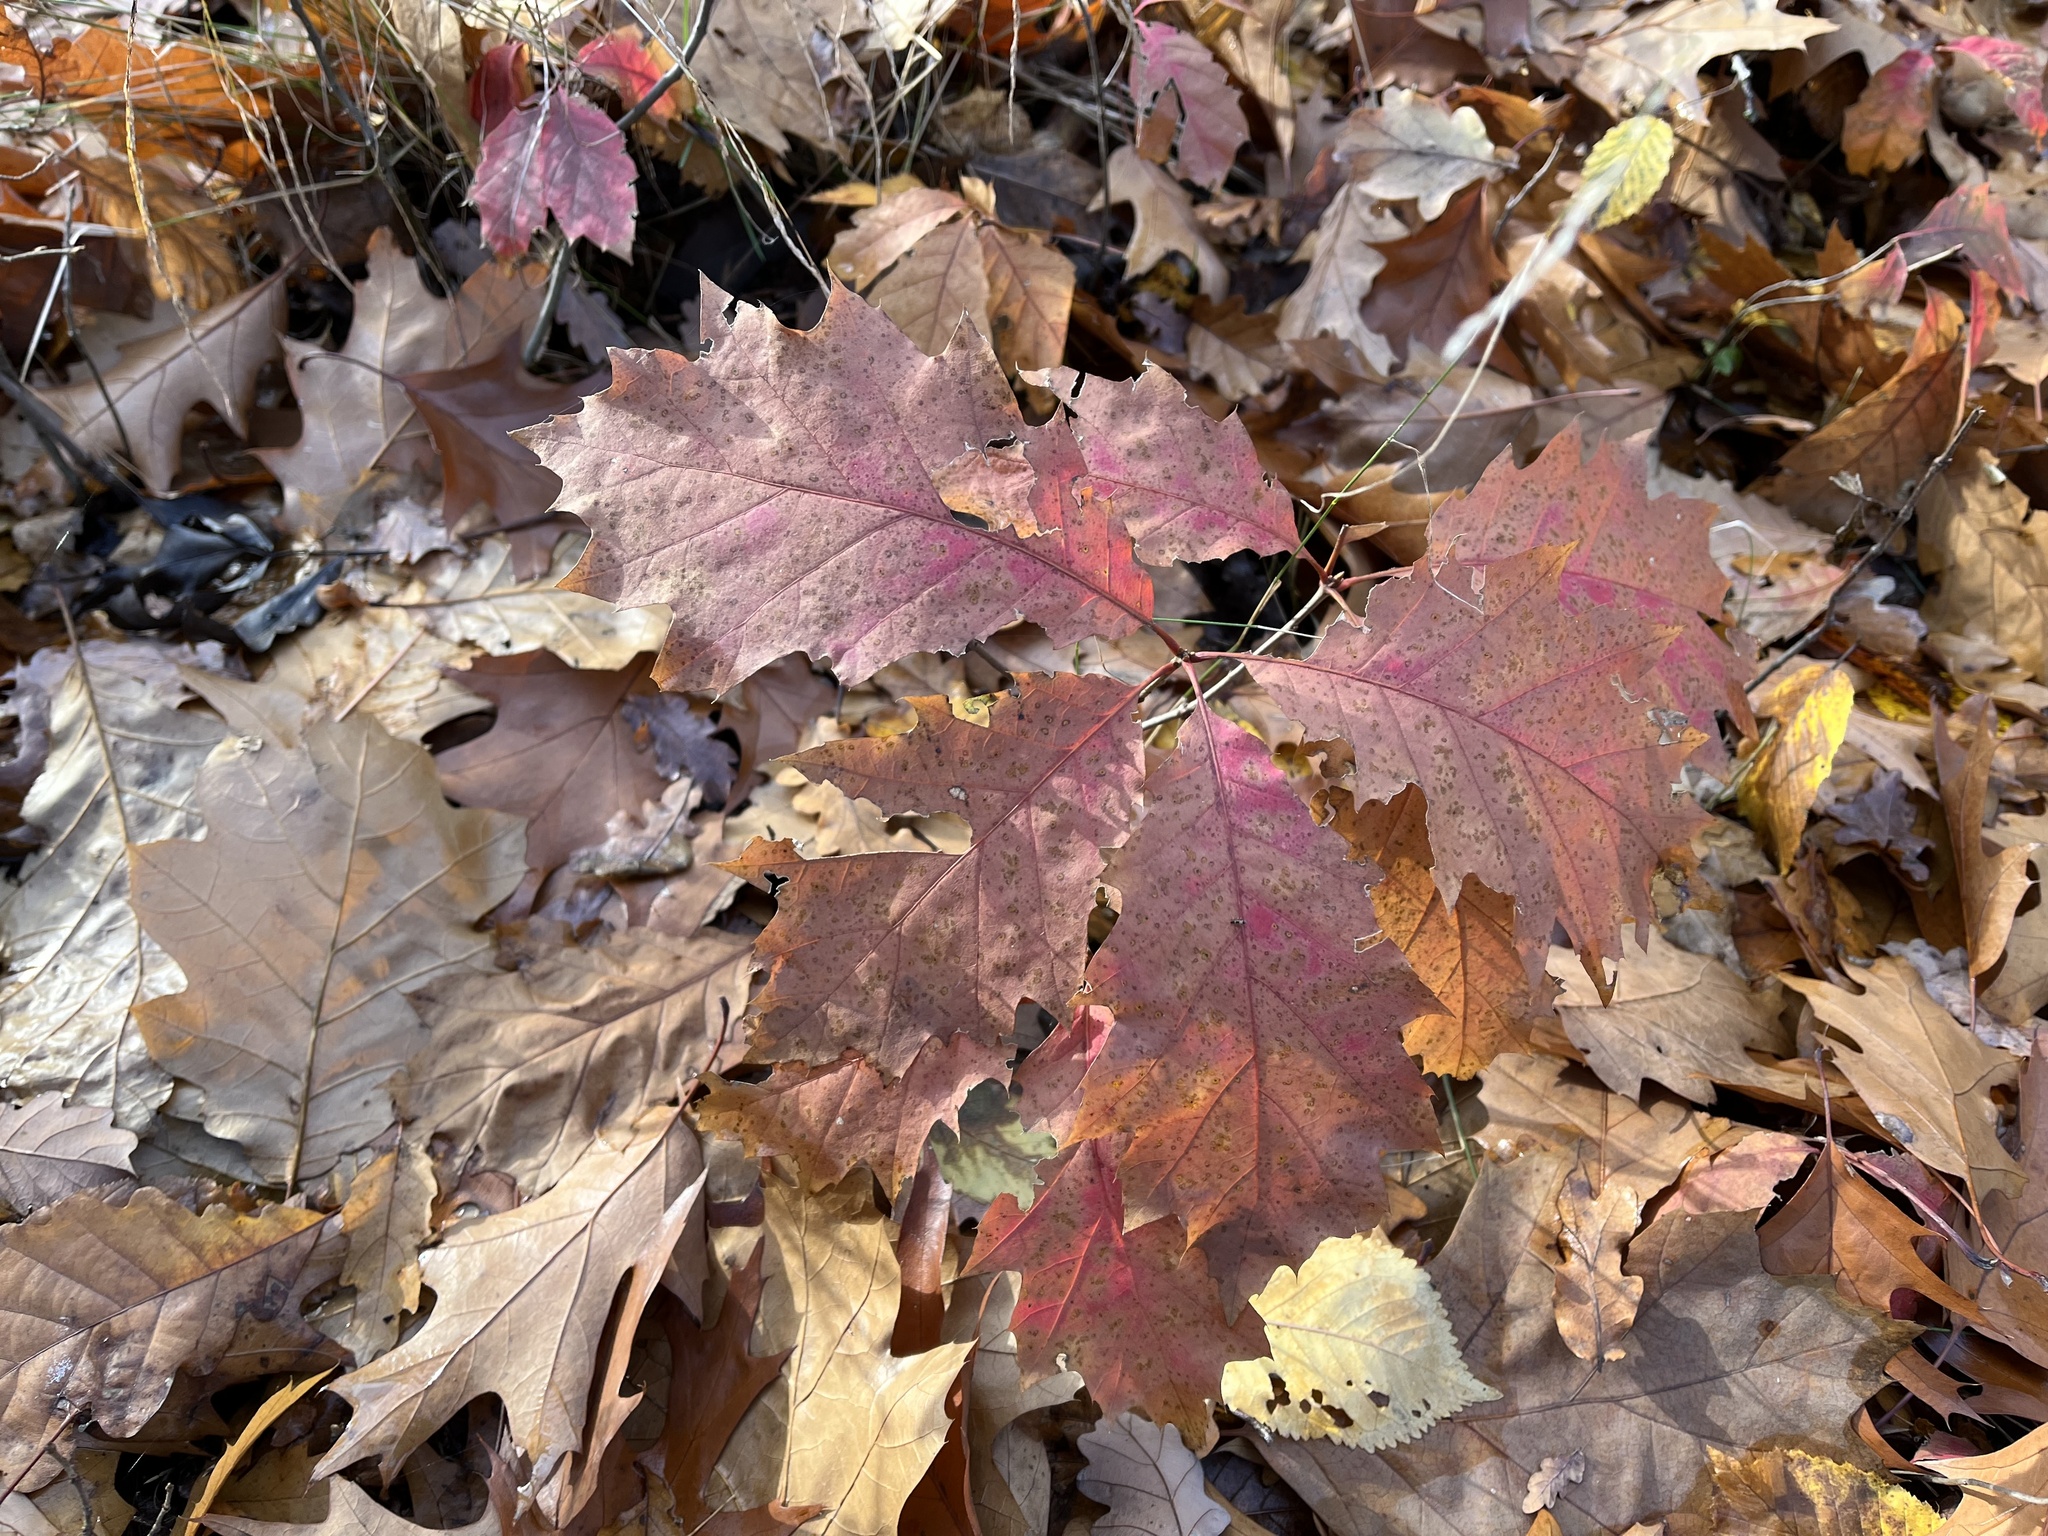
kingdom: Plantae
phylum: Tracheophyta
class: Magnoliopsida
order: Fagales
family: Fagaceae
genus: Quercus
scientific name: Quercus rubra
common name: Red oak
